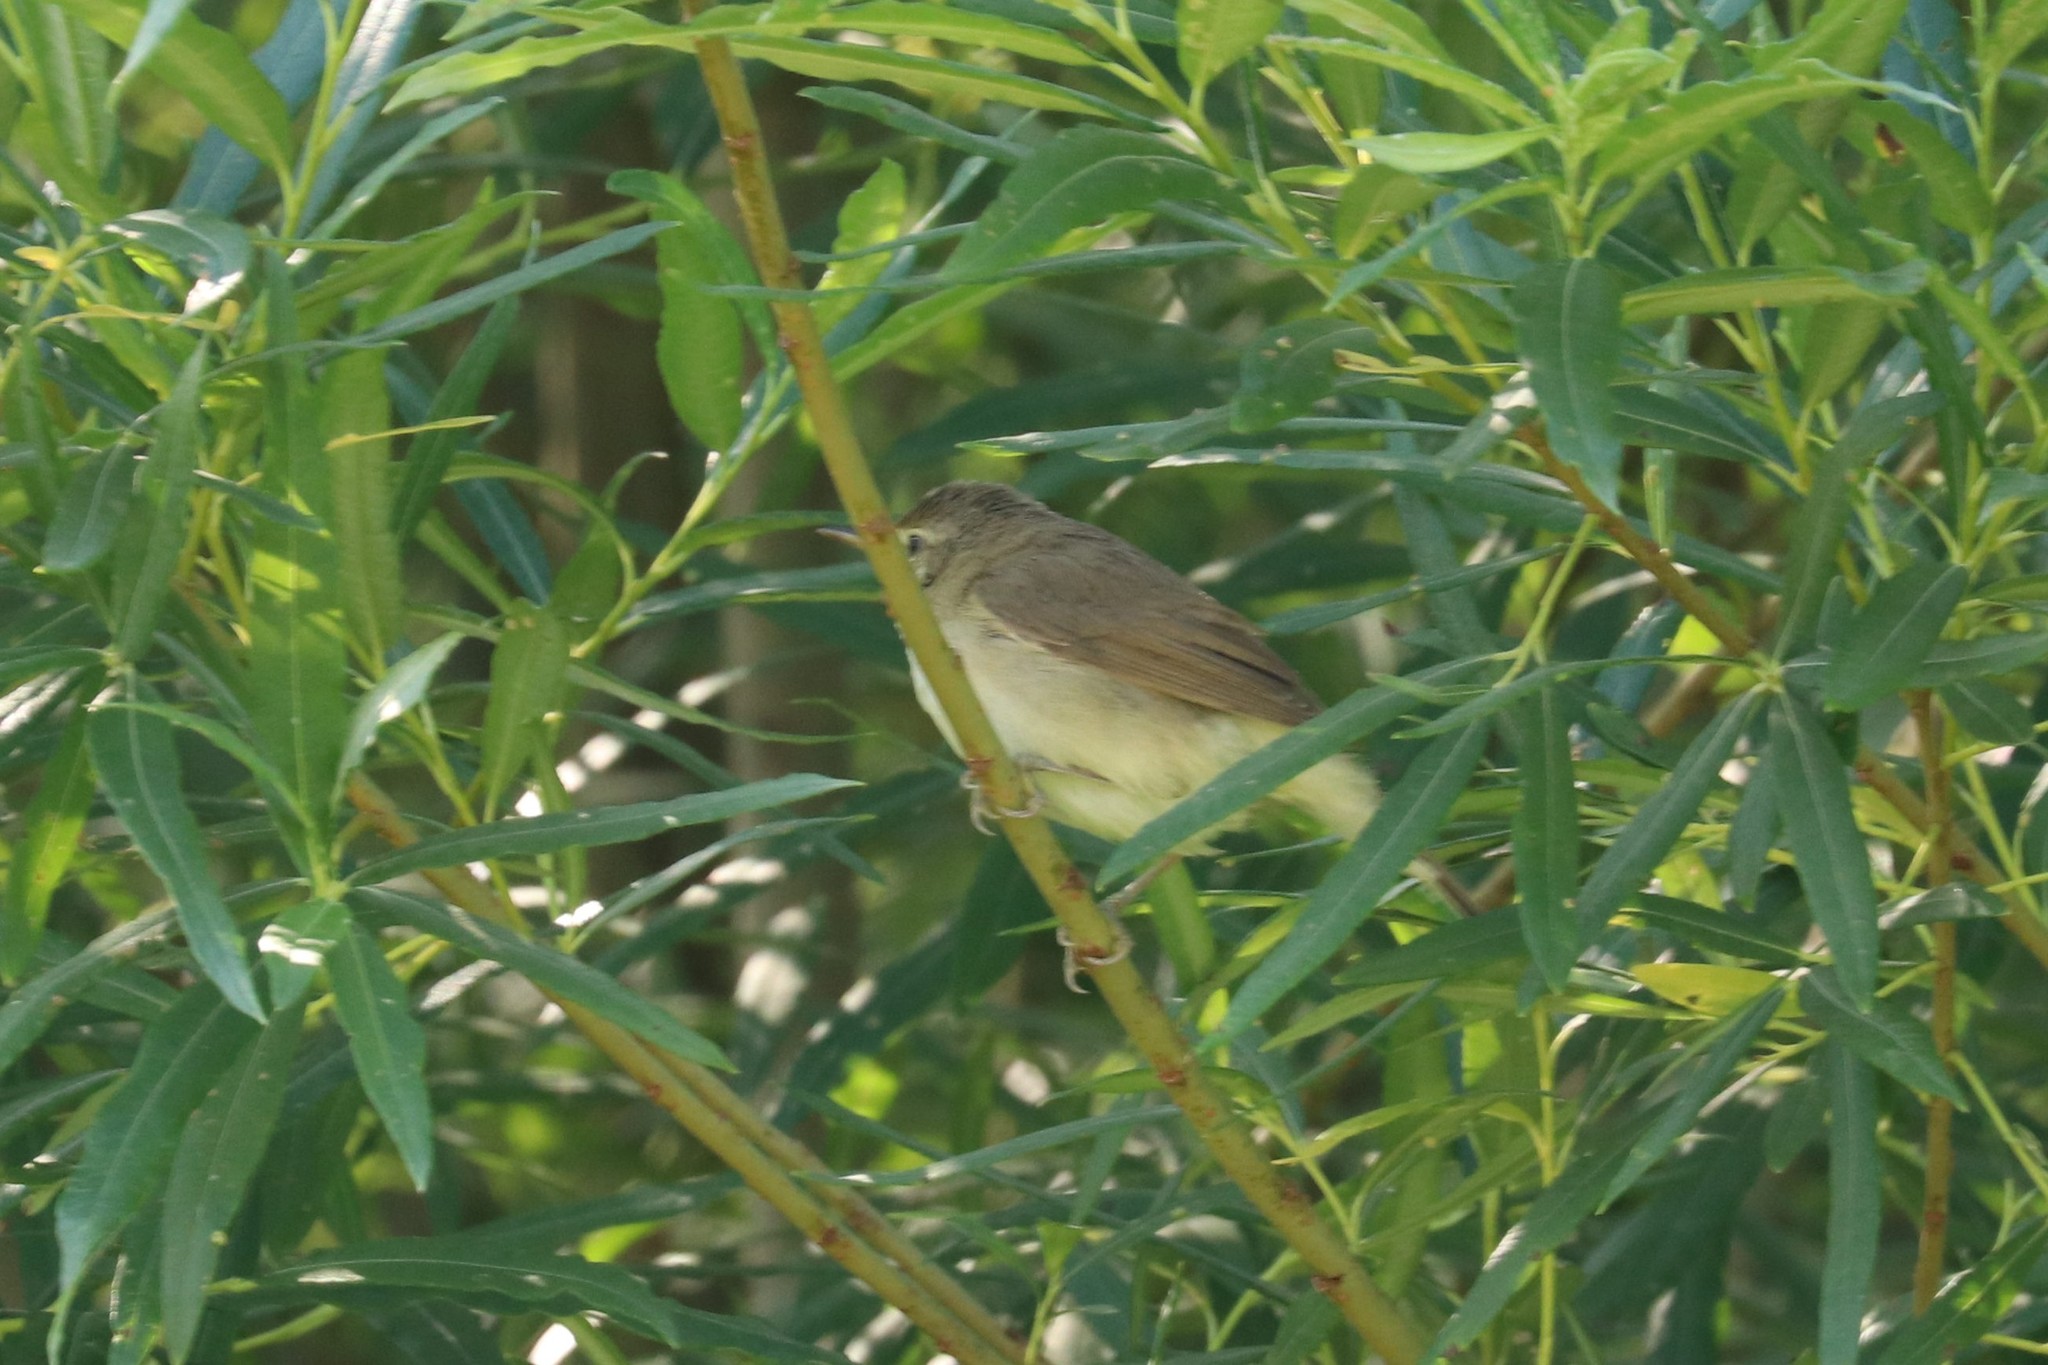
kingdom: Animalia
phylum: Chordata
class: Aves
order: Passeriformes
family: Acrocephalidae
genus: Acrocephalus
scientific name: Acrocephalus dumetorum
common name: Blyth's reed warbler
